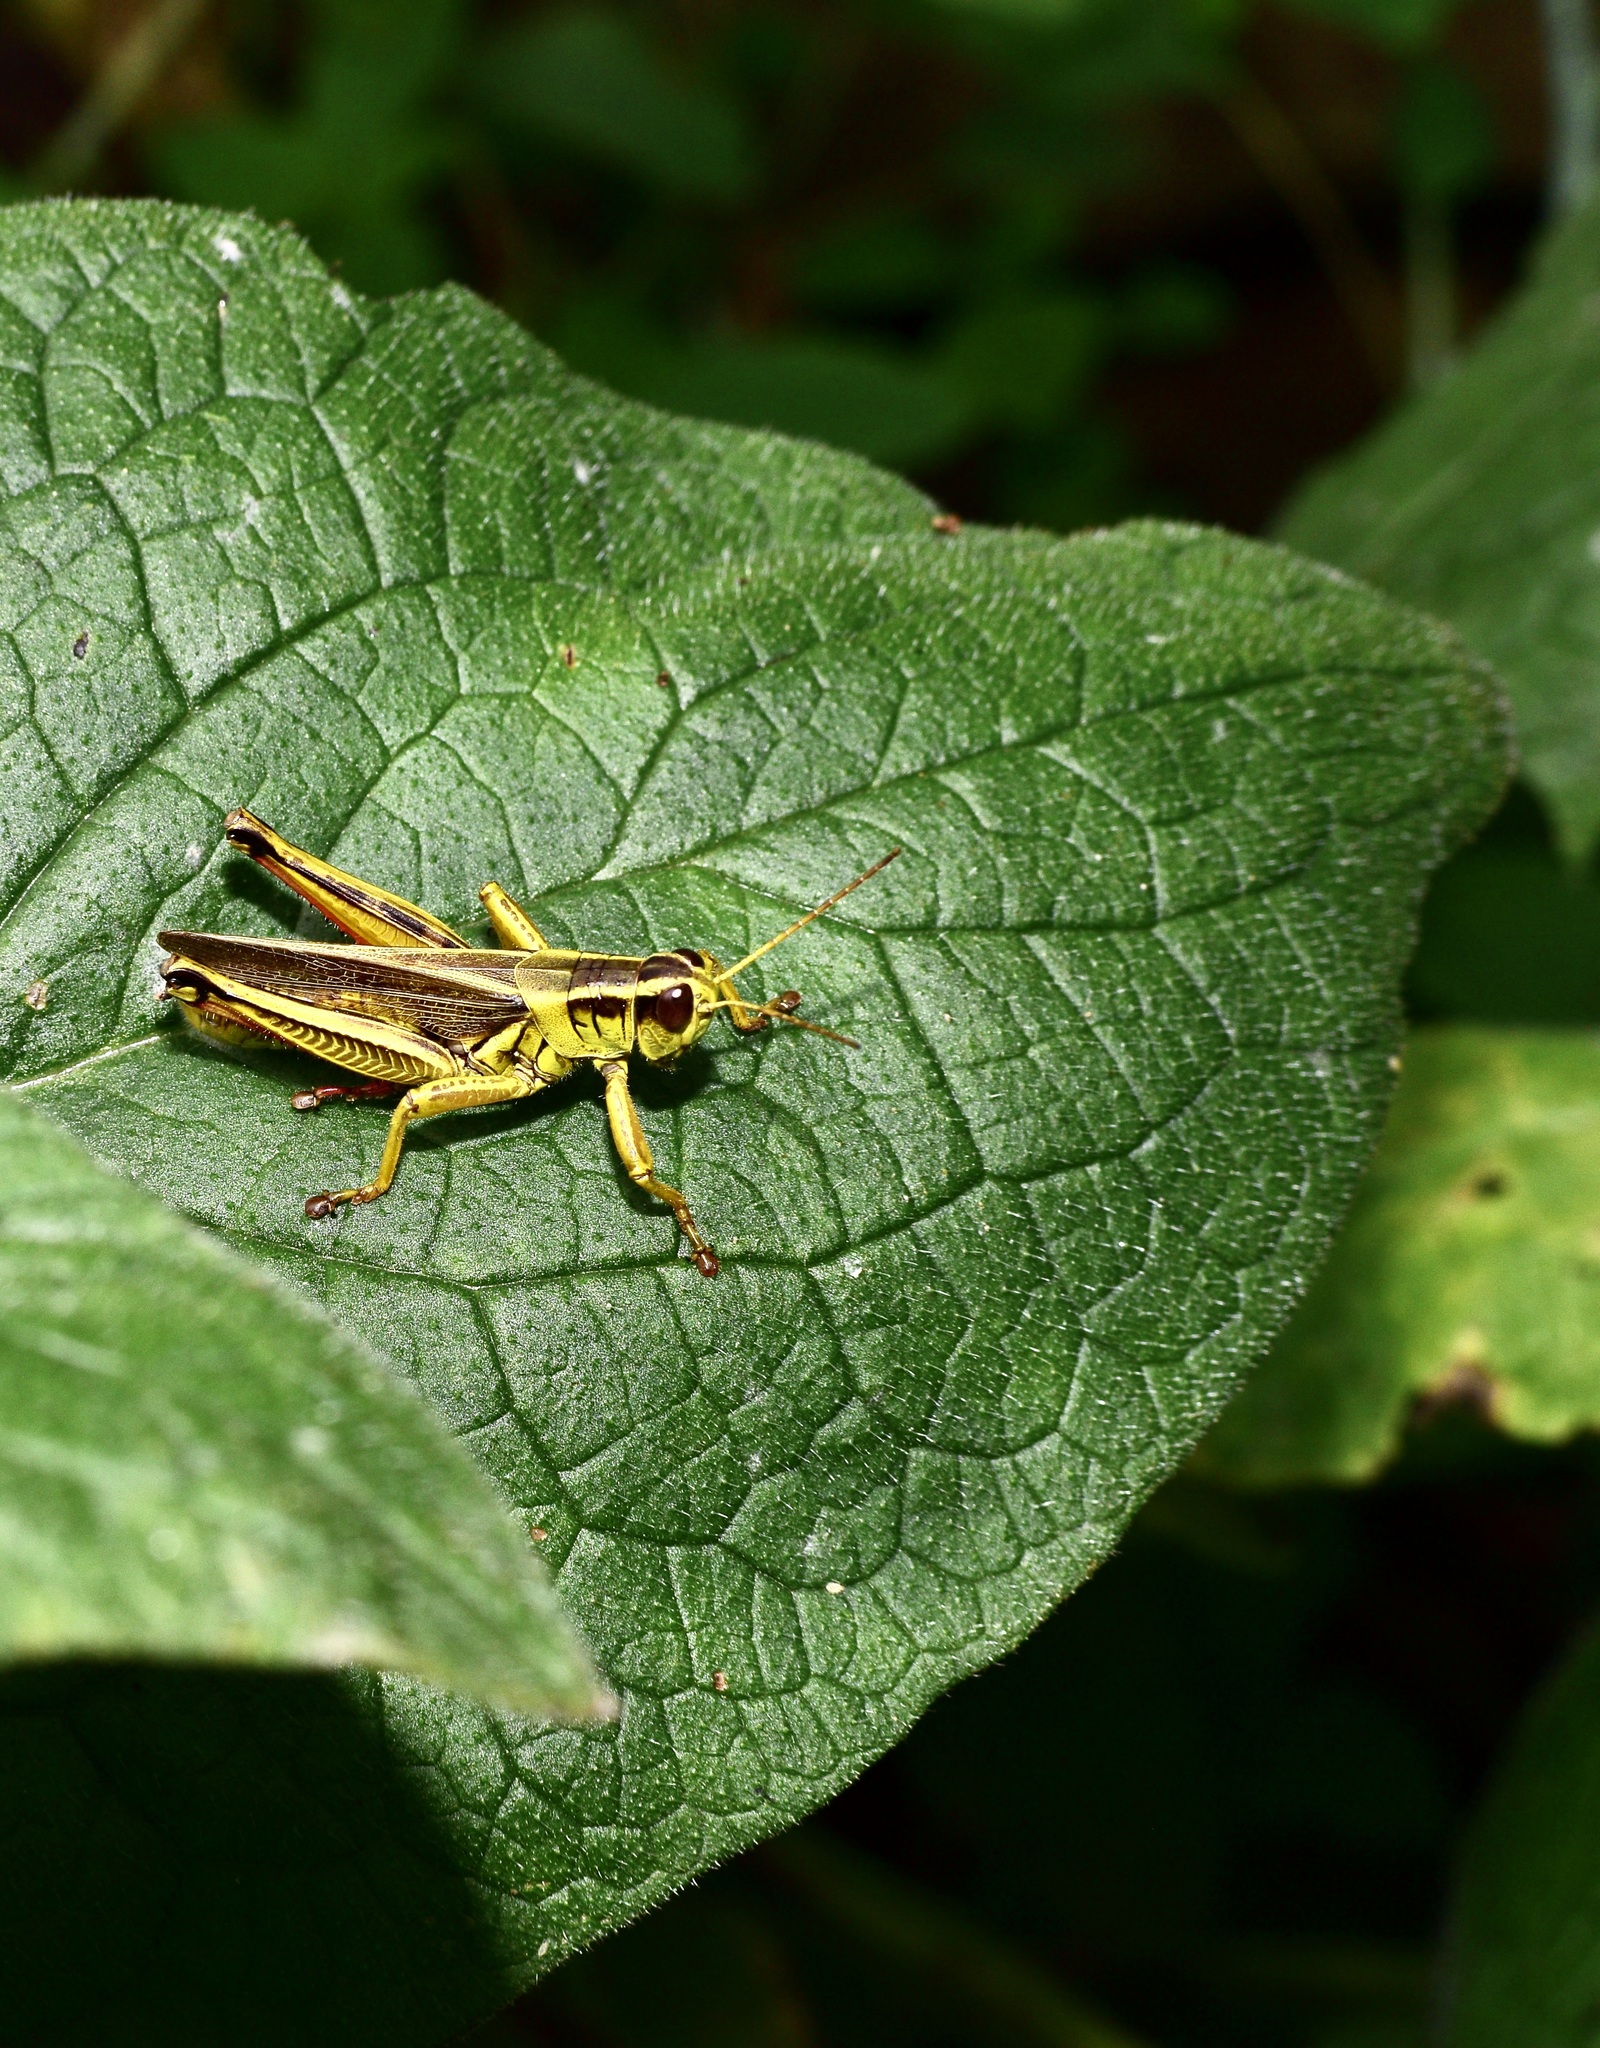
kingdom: Animalia
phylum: Arthropoda
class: Insecta
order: Orthoptera
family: Acrididae
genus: Melanoplus
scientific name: Melanoplus bivittatus
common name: Two-striped grasshopper
